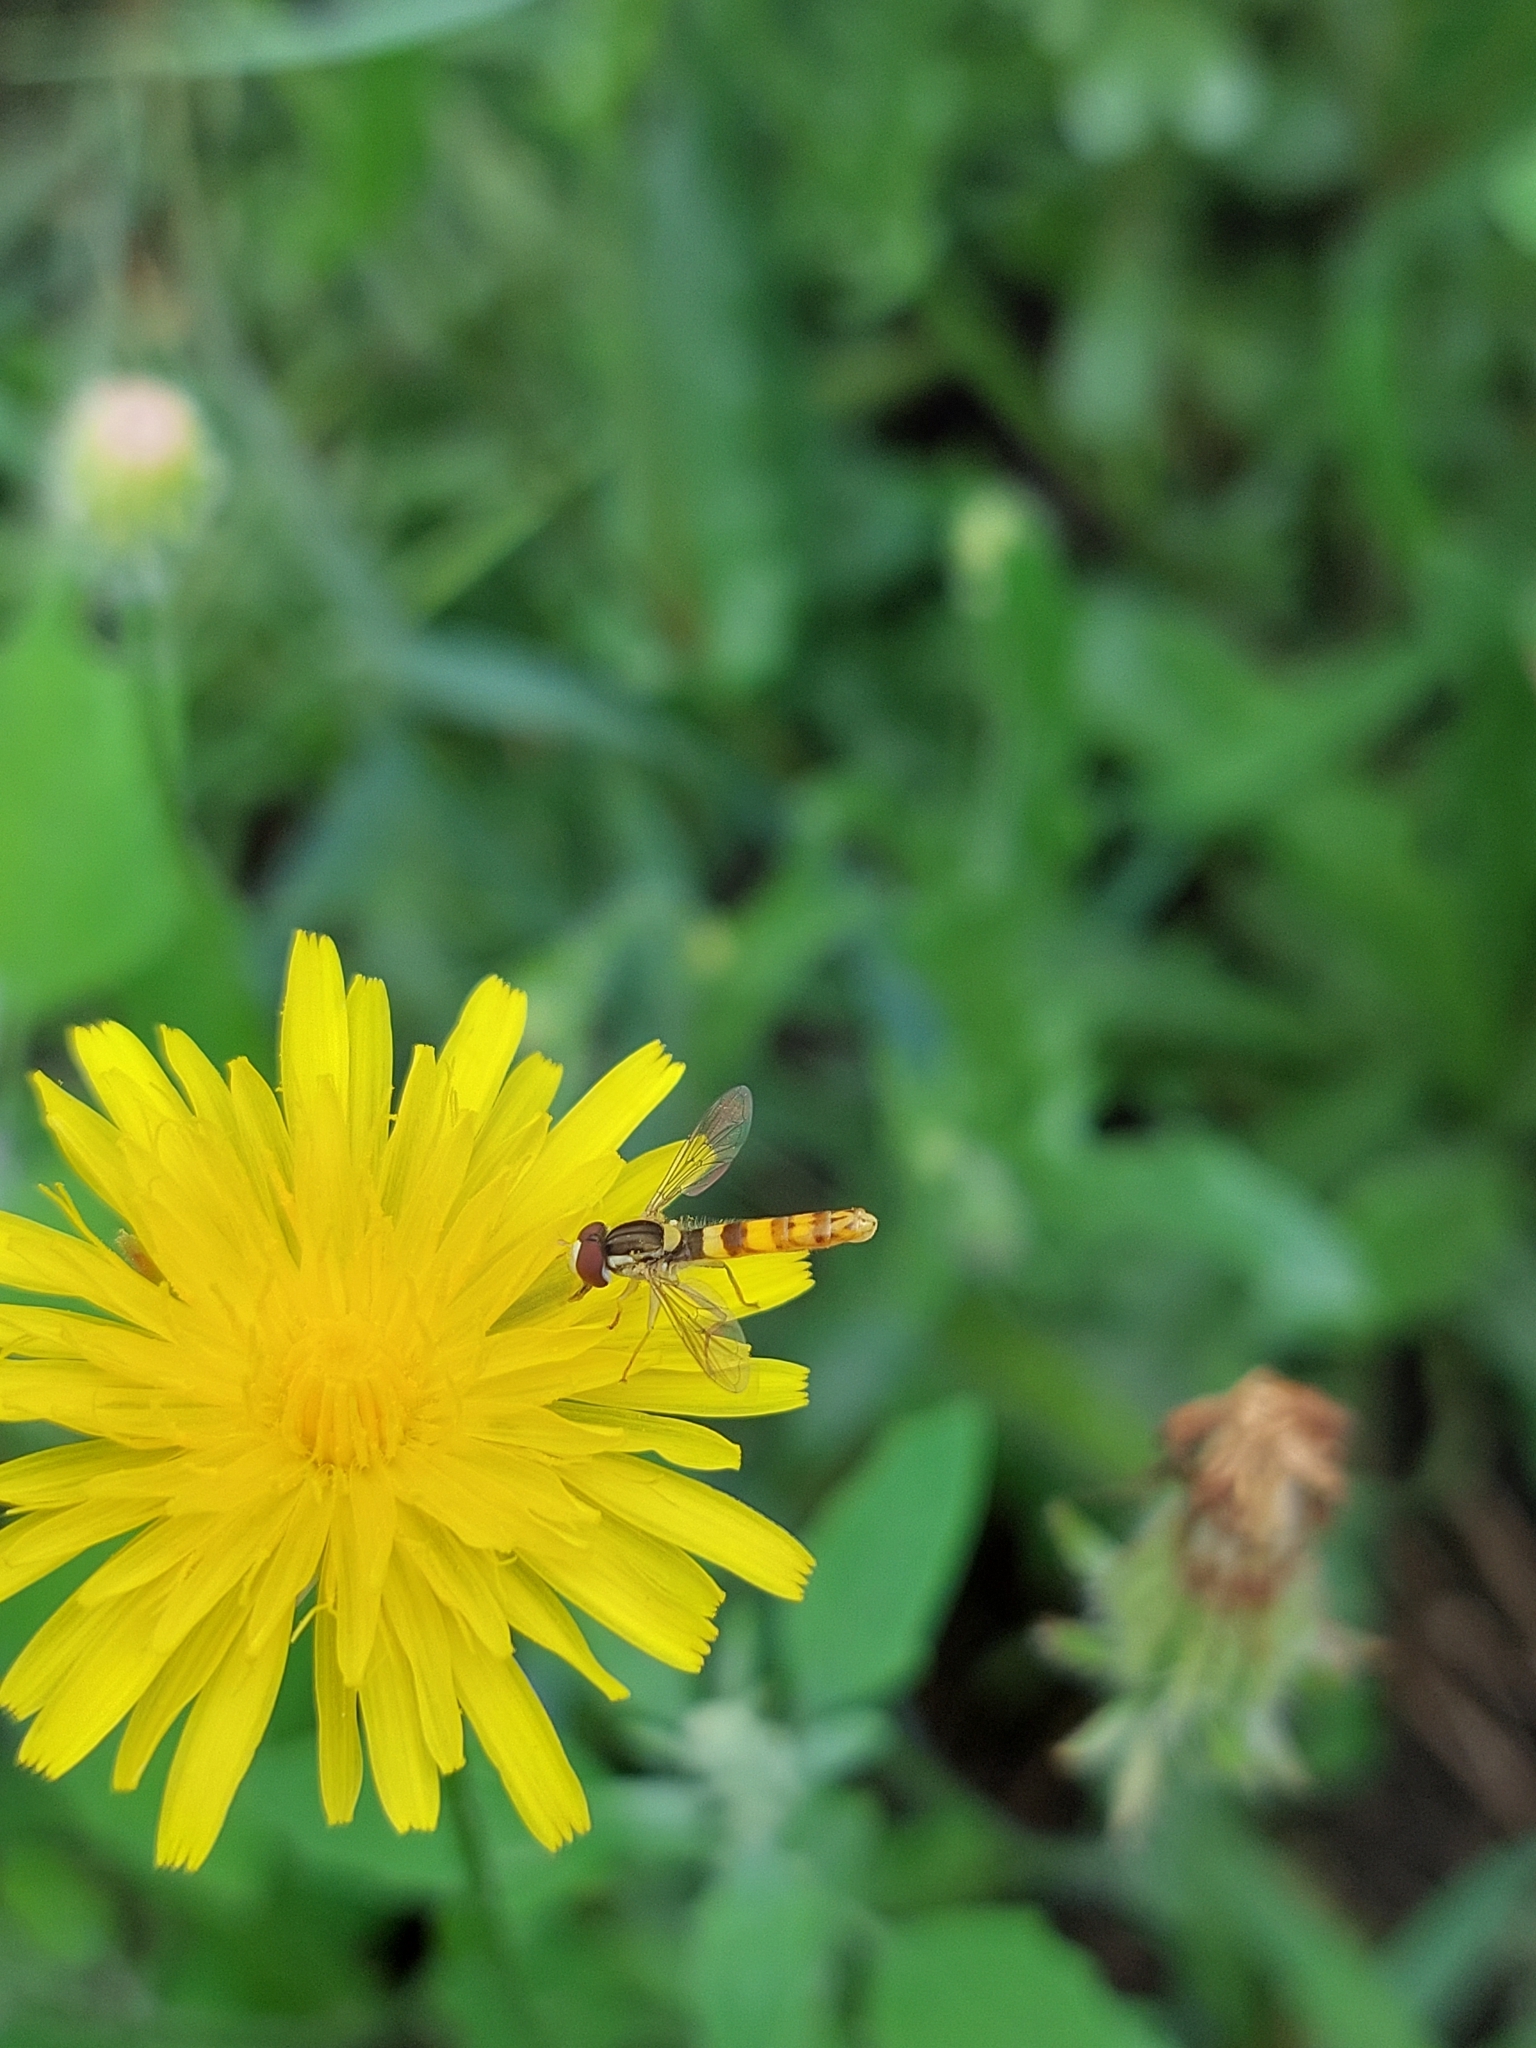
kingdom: Animalia
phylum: Arthropoda
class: Insecta
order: Diptera
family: Syrphidae
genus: Sphaerophoria
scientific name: Sphaerophoria scripta
